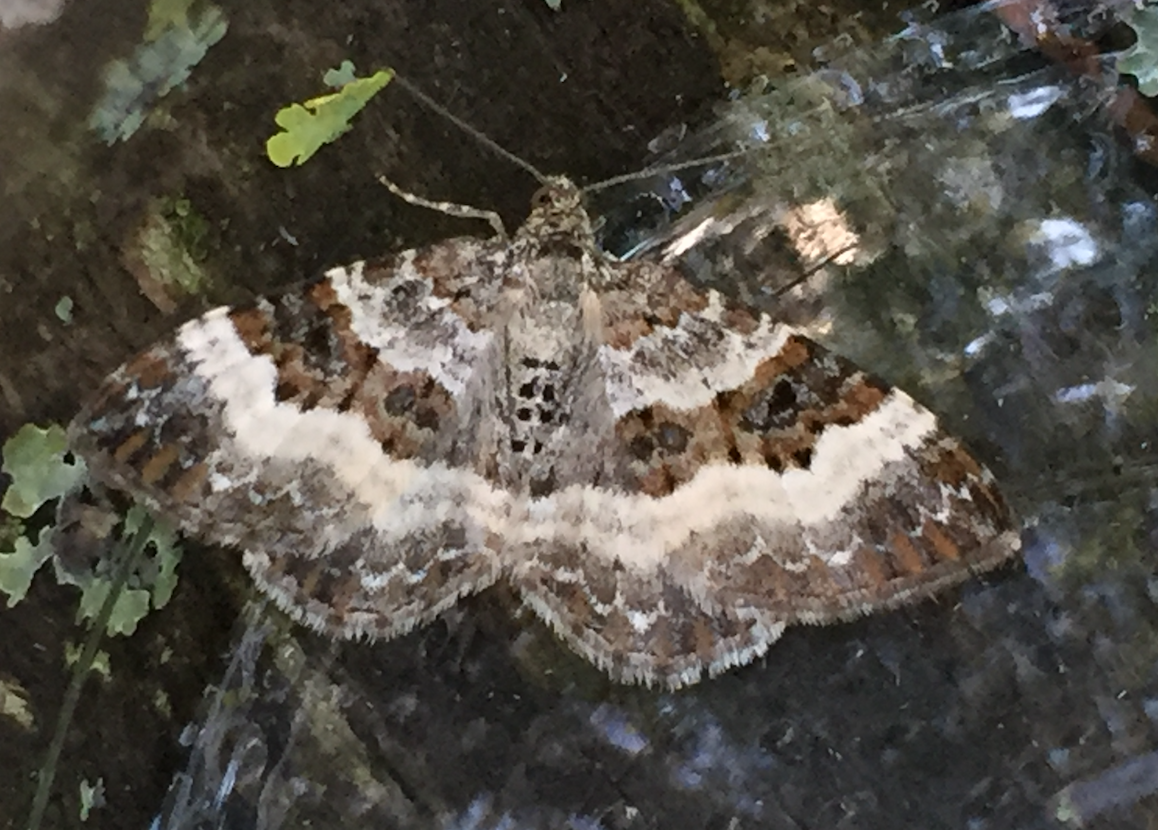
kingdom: Animalia
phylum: Arthropoda
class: Insecta
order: Lepidoptera
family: Geometridae
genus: Epirrhoe
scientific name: Epirrhoe alternata
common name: Common carpet
